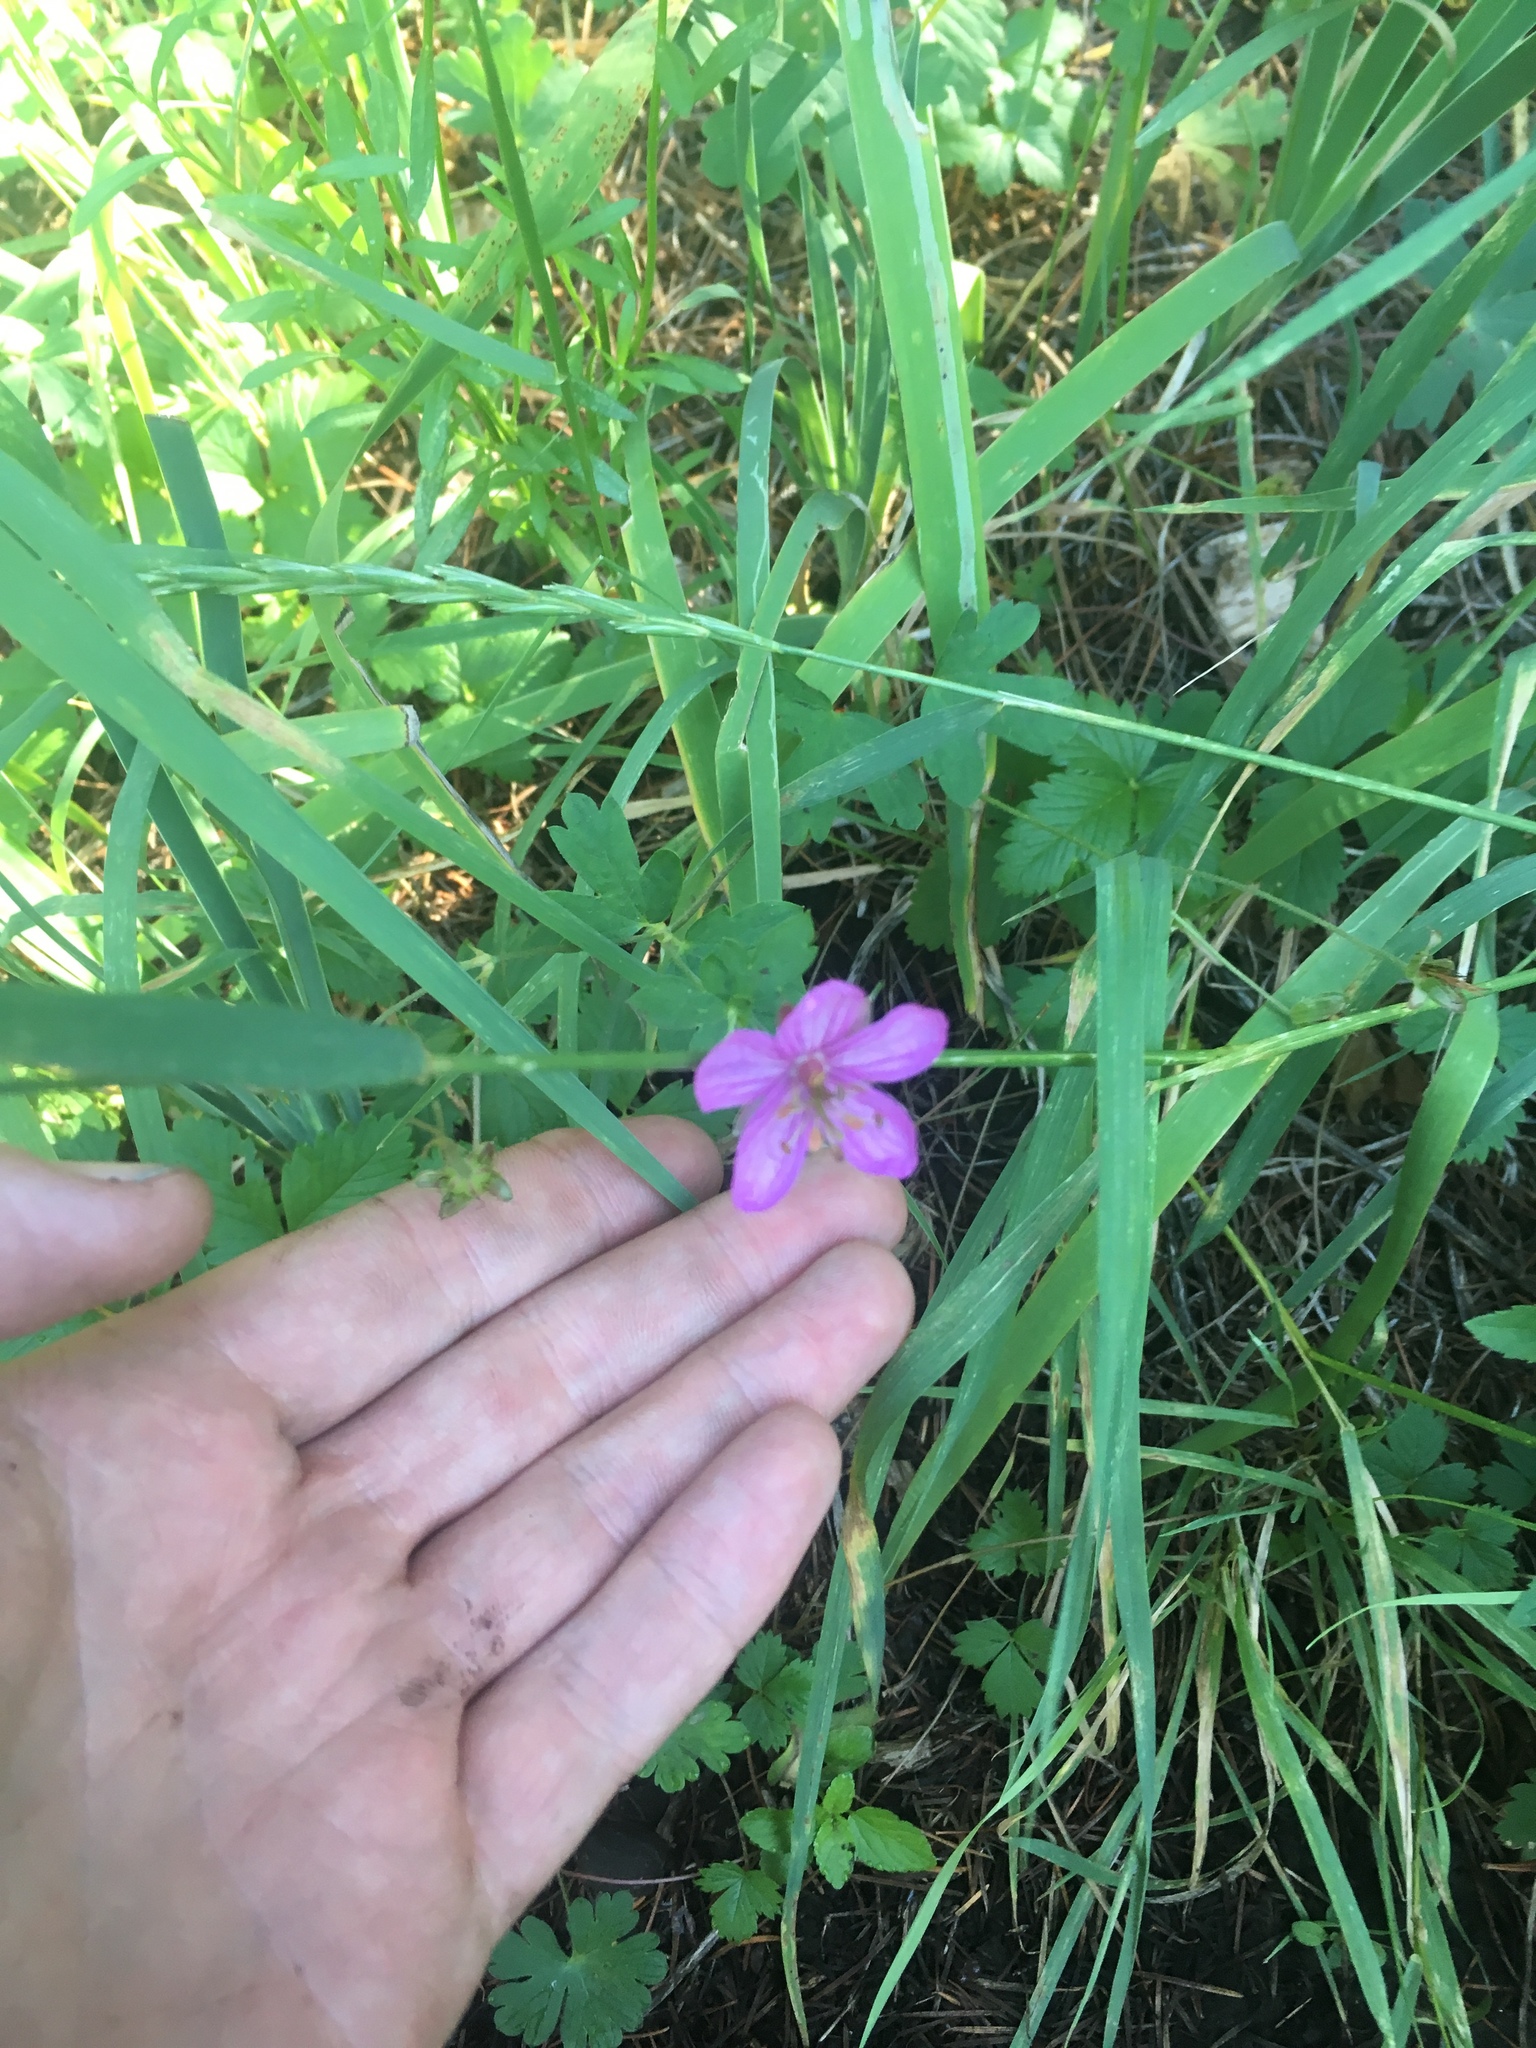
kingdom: Plantae
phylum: Tracheophyta
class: Magnoliopsida
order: Geraniales
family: Geraniaceae
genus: Geranium
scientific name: Geranium caespitosum
